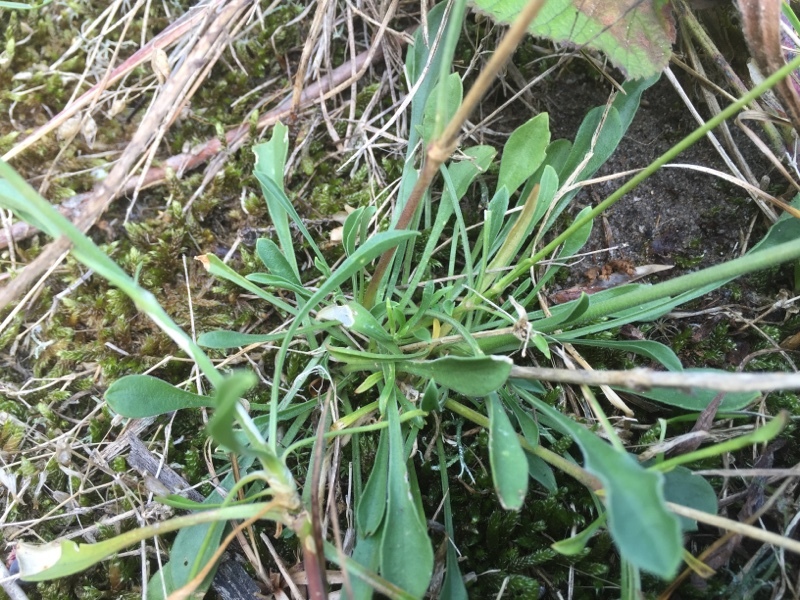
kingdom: Plantae
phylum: Tracheophyta
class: Magnoliopsida
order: Caryophyllales
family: Caryophyllaceae
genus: Silene
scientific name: Silene otites
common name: Spanish catchfly
